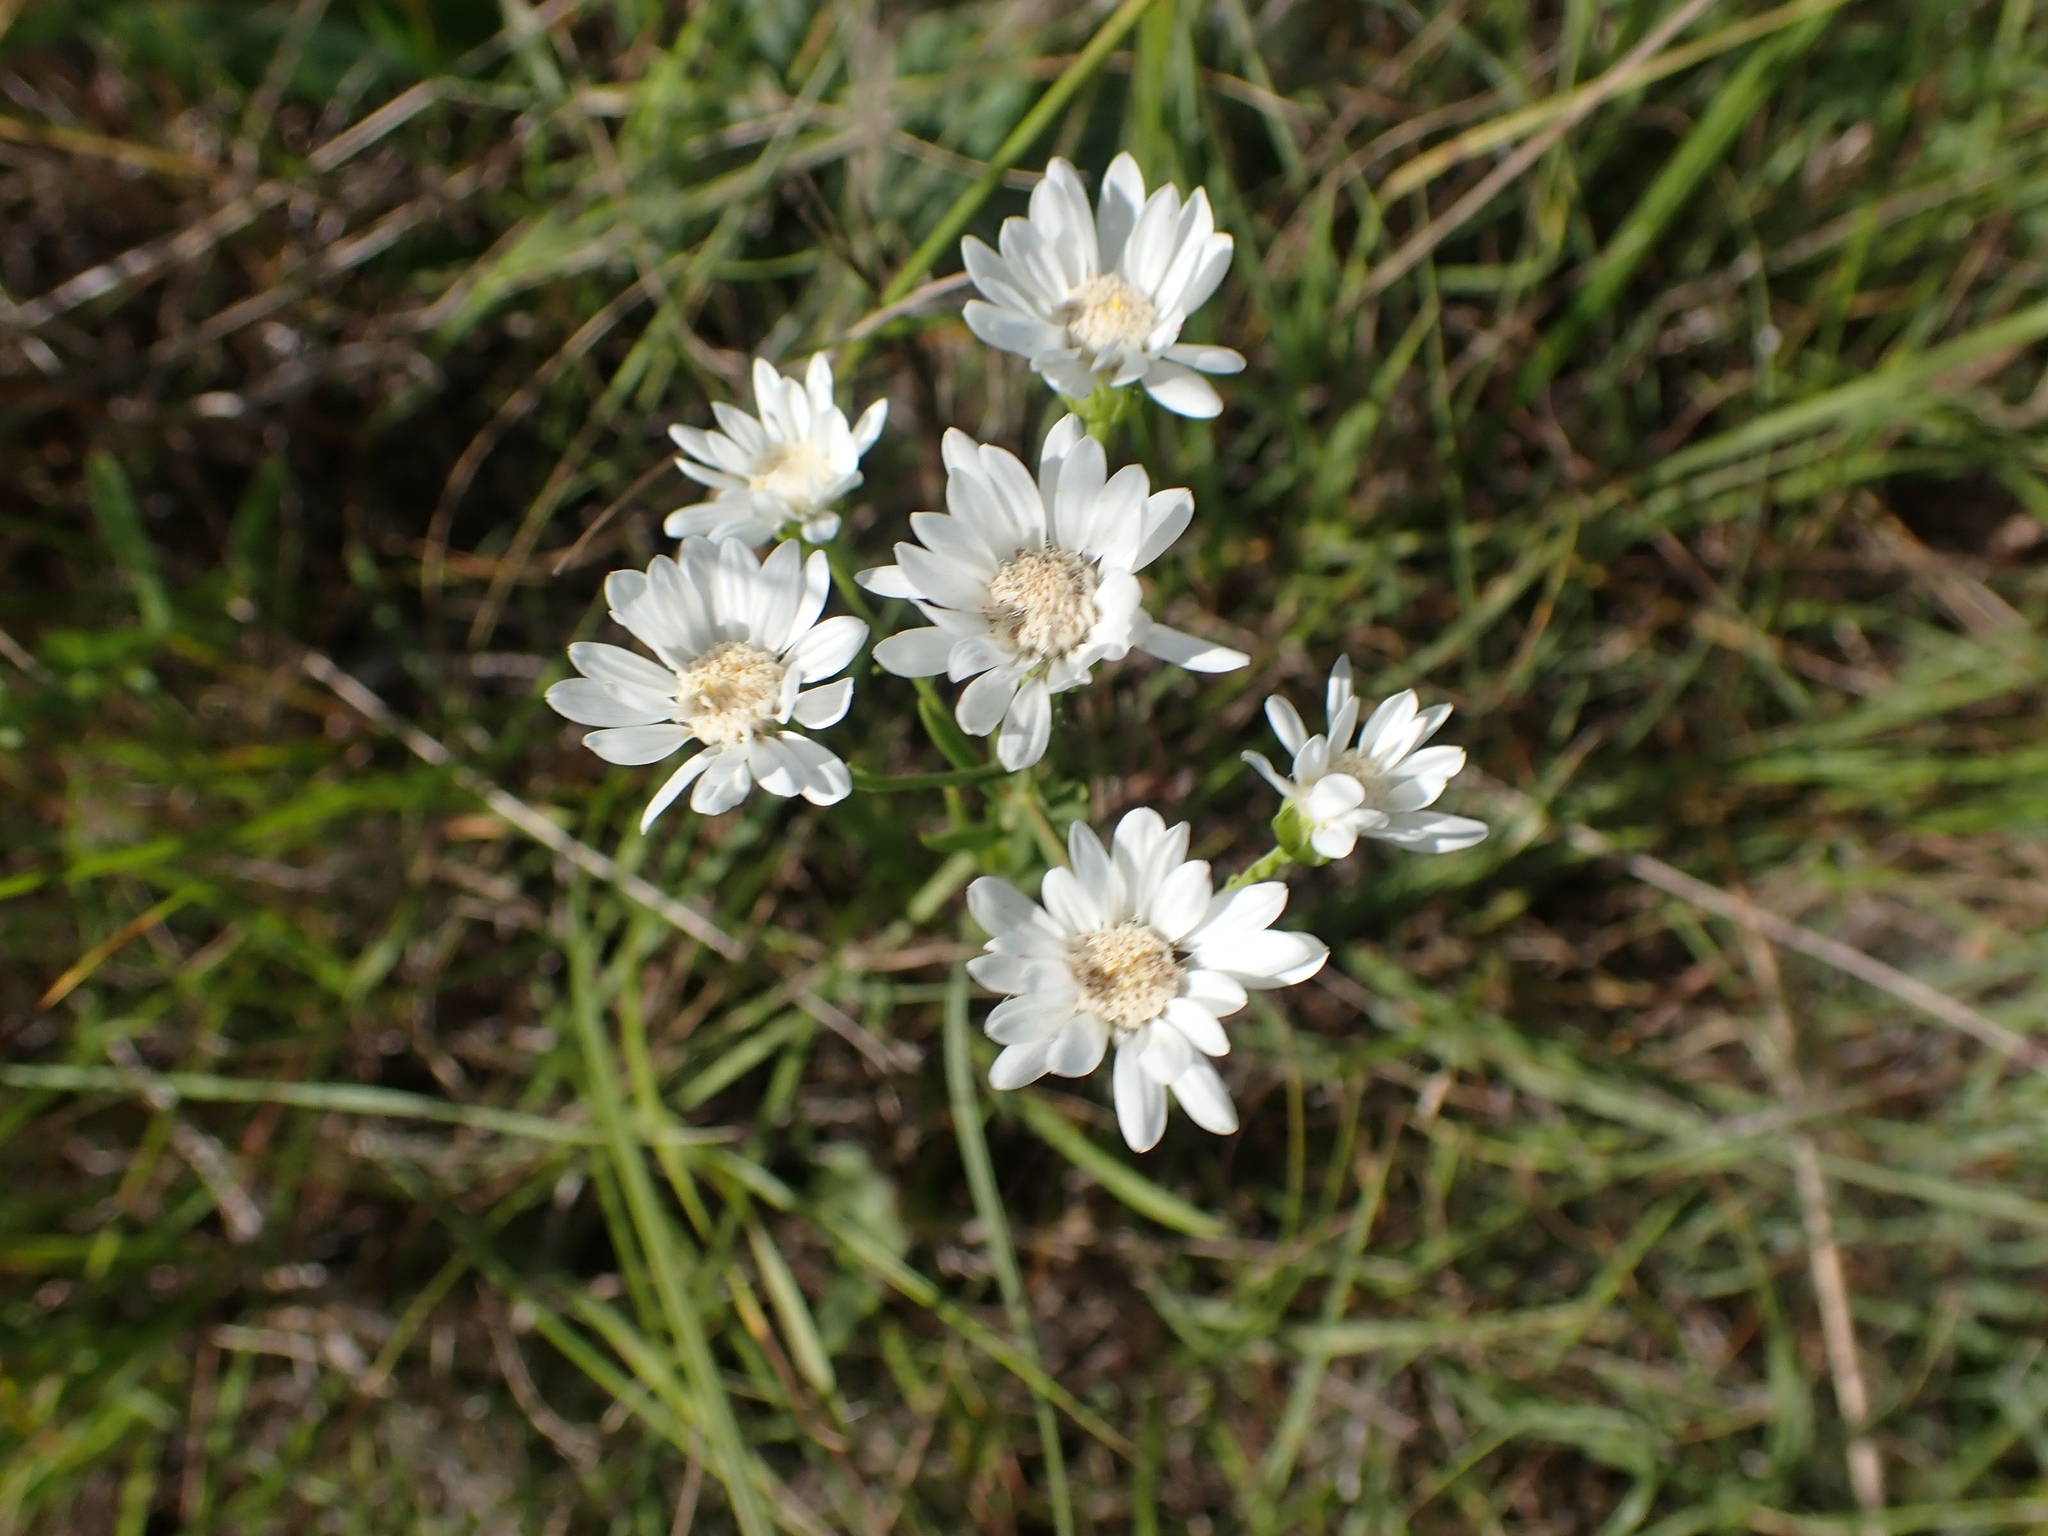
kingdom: Plantae
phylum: Tracheophyta
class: Magnoliopsida
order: Asterales
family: Asteraceae
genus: Solidago
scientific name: Solidago ptarmicoides
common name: White flat-top goldenrod
